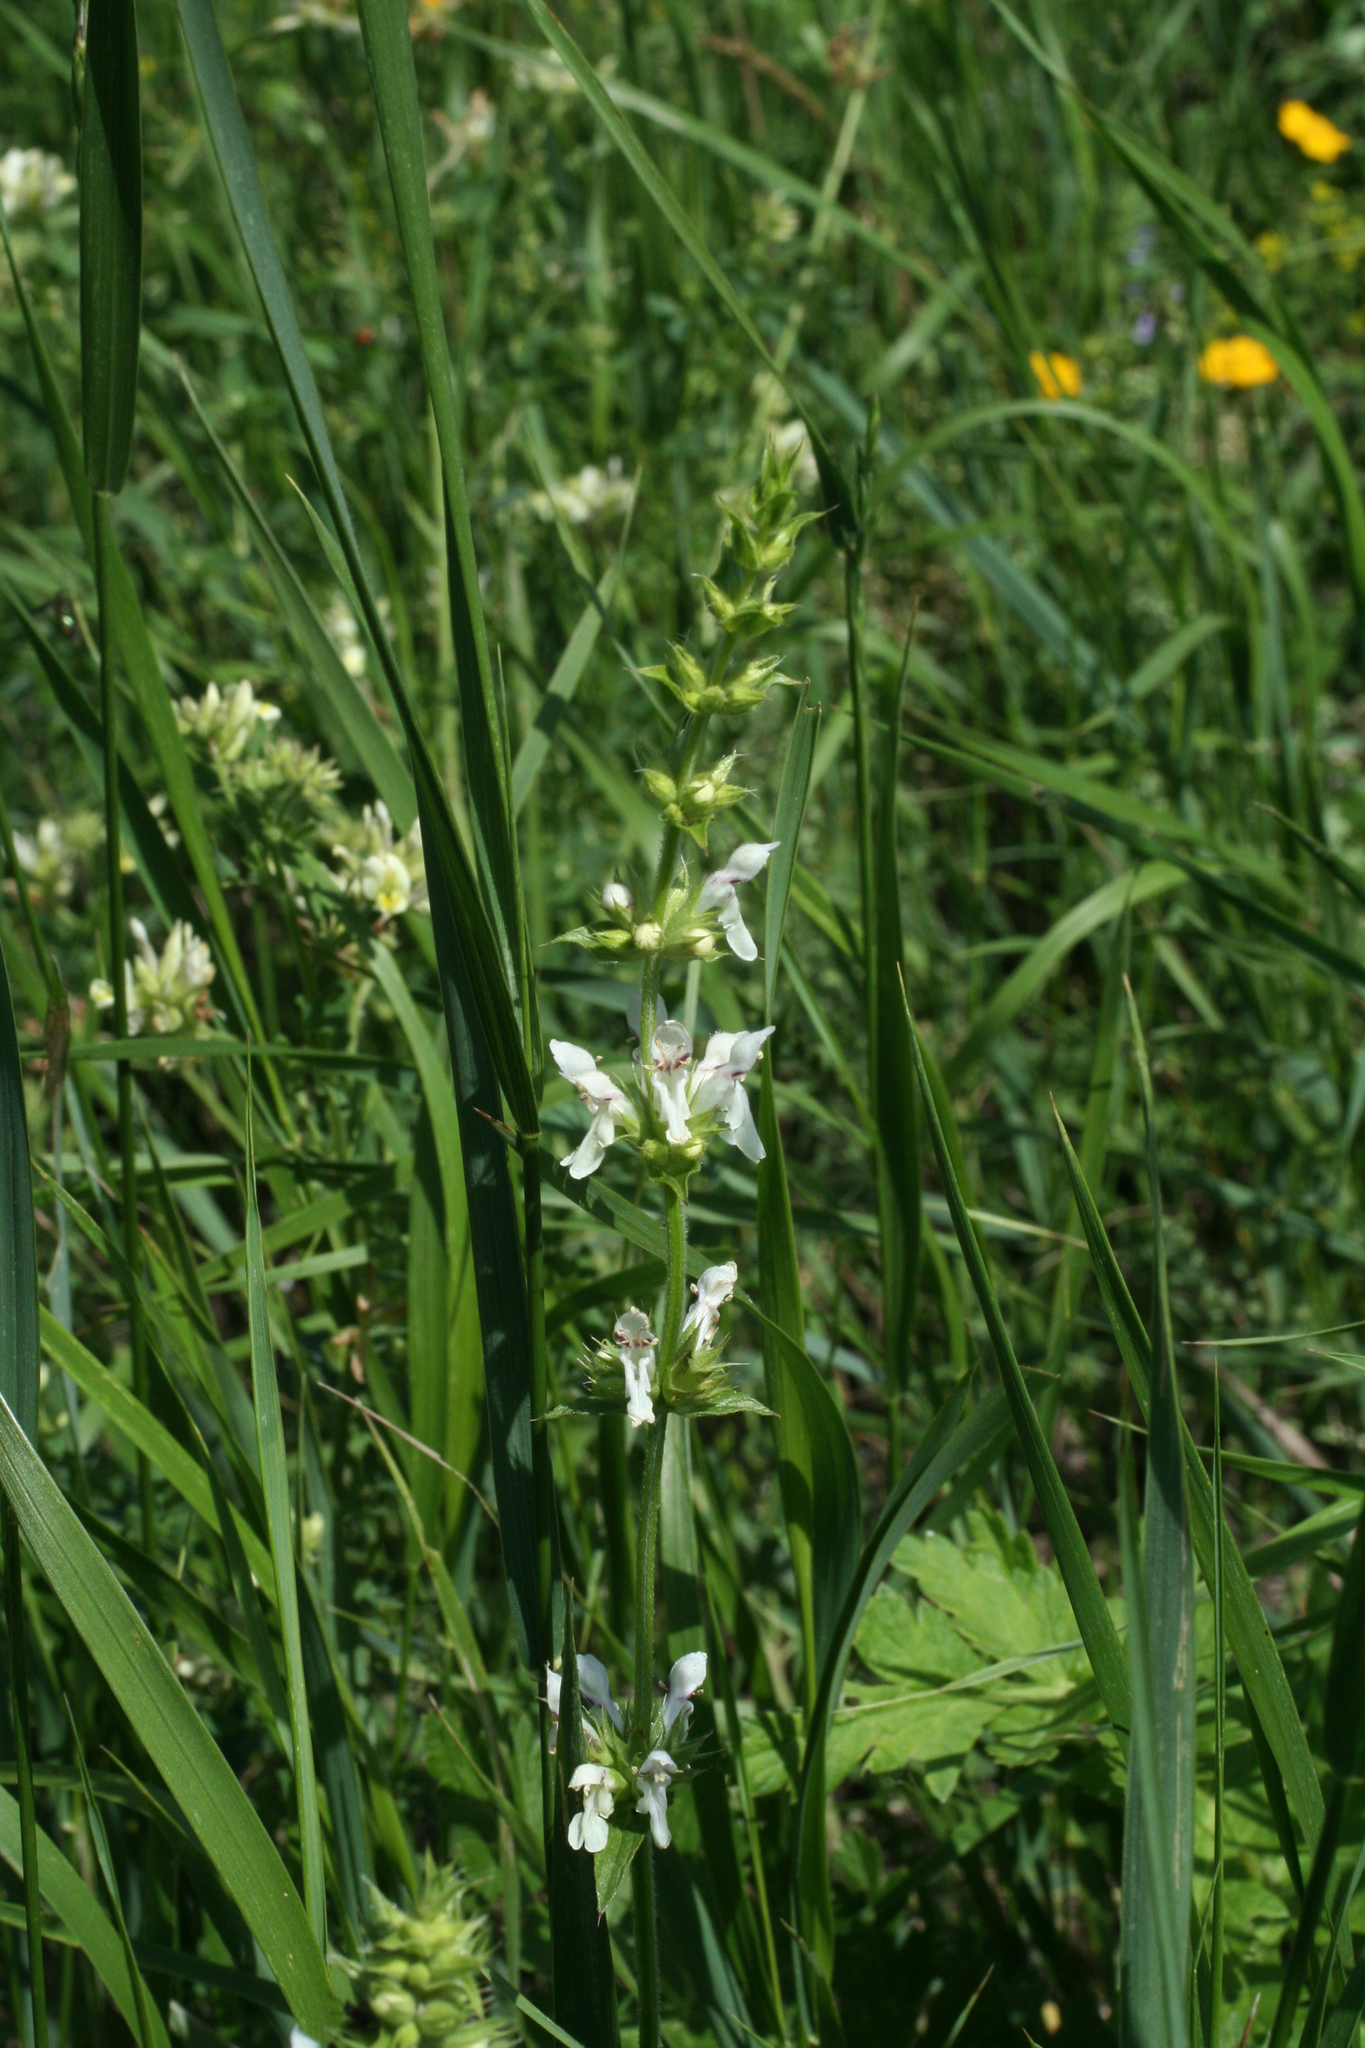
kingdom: Plantae
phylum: Tracheophyta
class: Magnoliopsida
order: Lamiales
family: Lamiaceae
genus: Stachys
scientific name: Stachys atherocalyx
